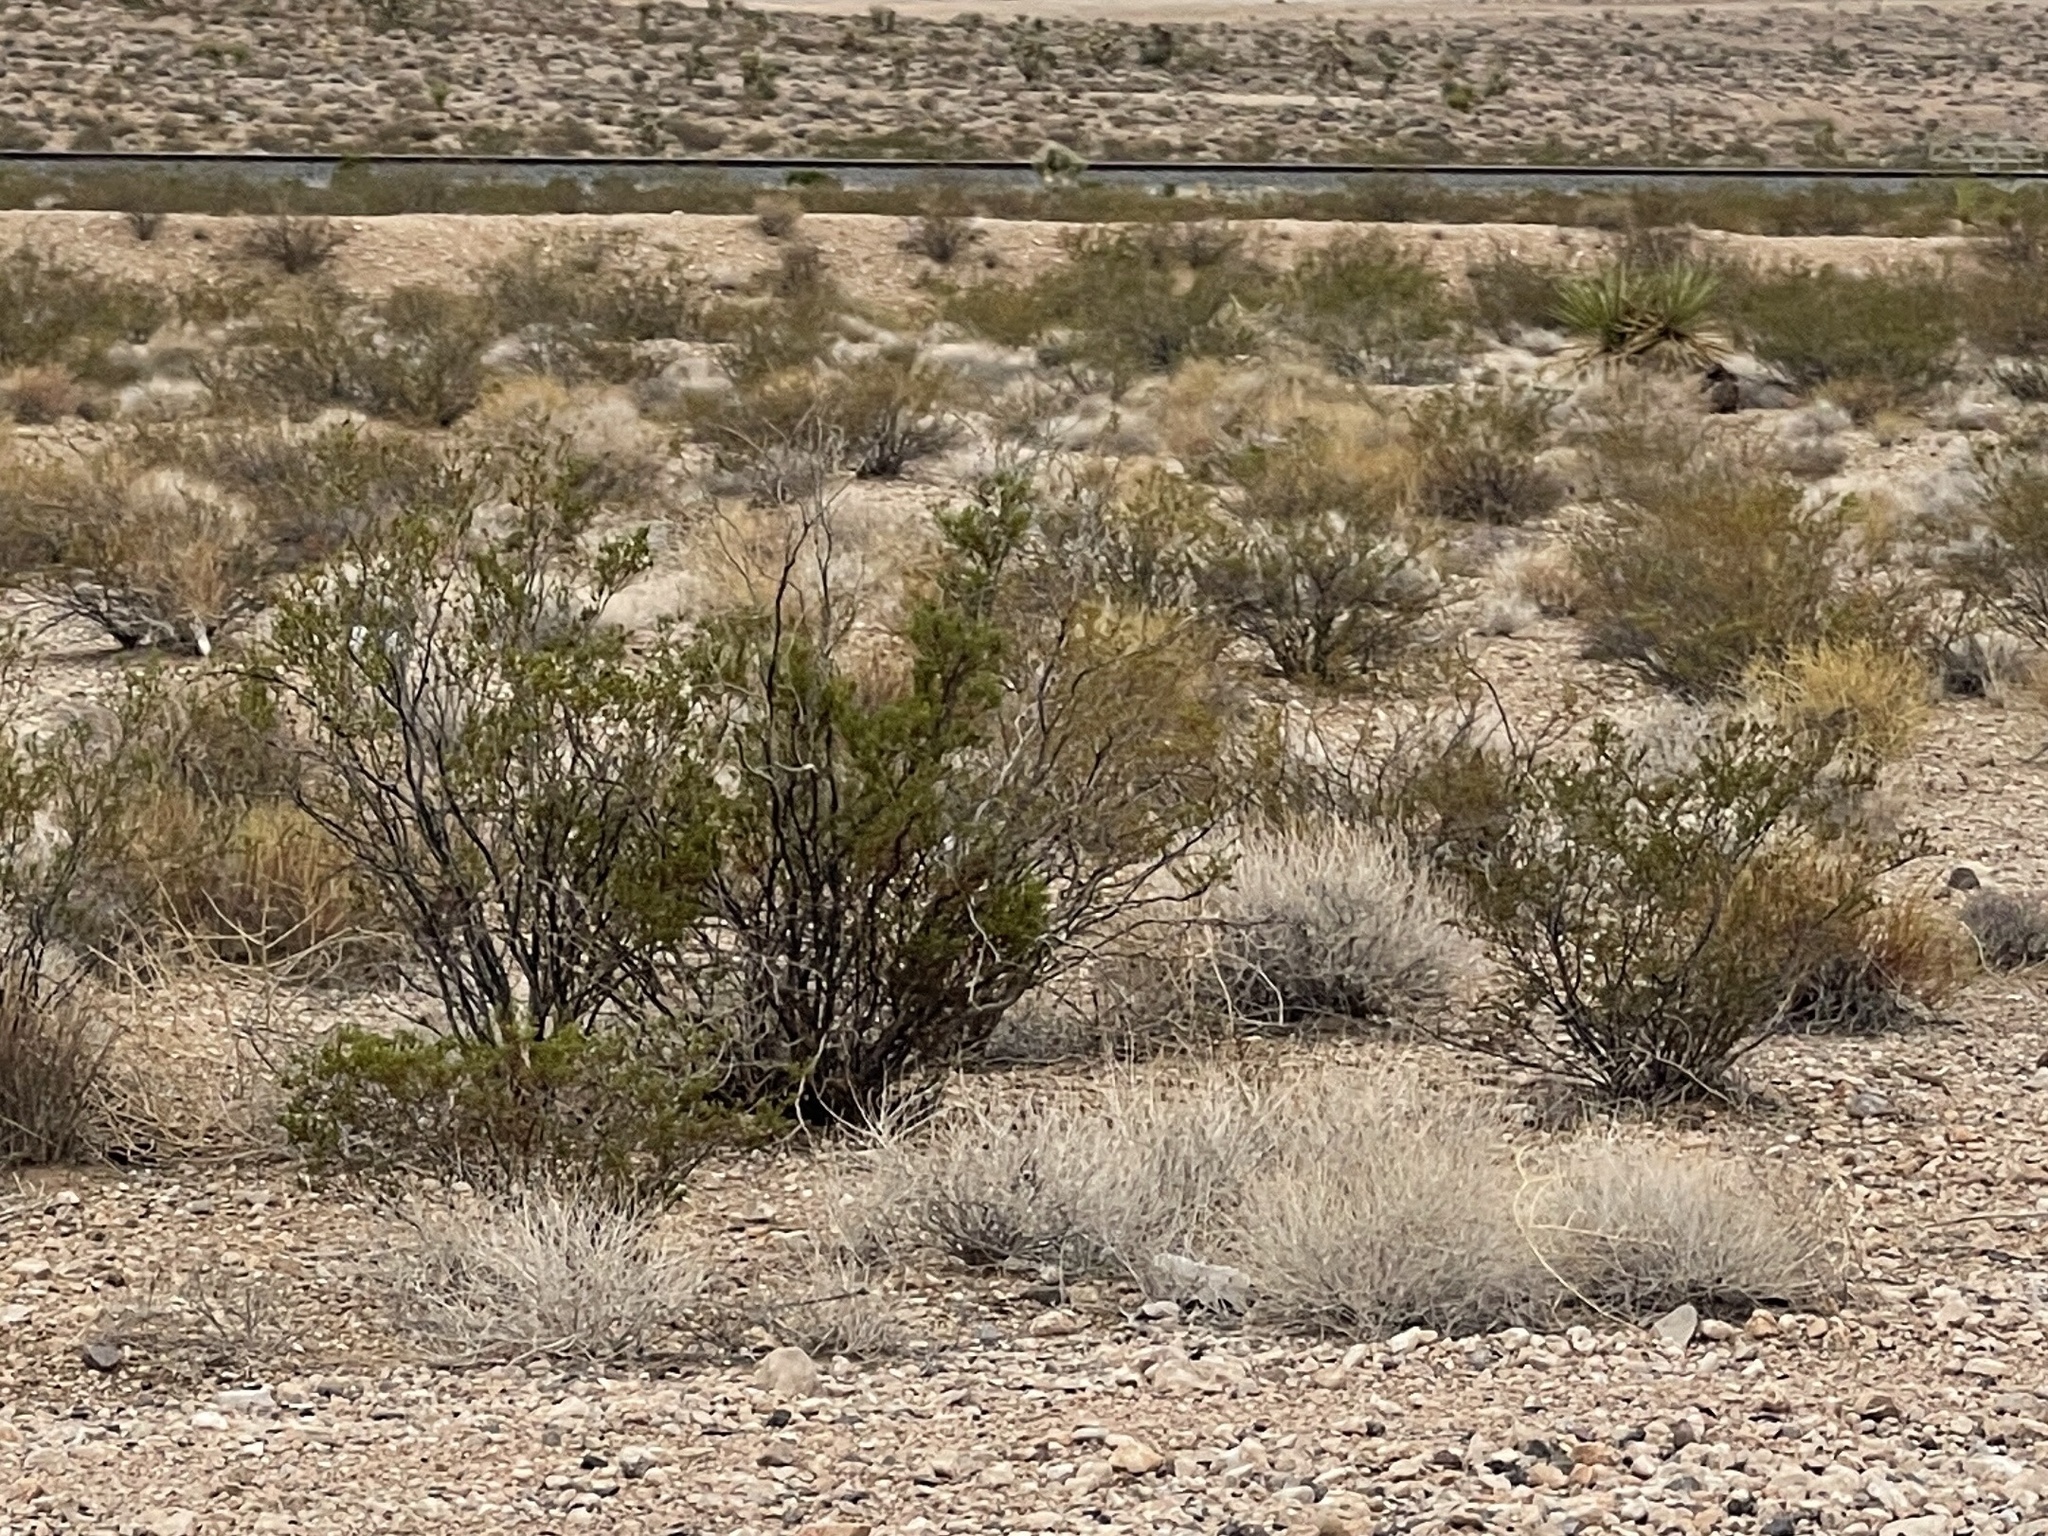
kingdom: Plantae
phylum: Tracheophyta
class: Magnoliopsida
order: Zygophyllales
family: Zygophyllaceae
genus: Larrea
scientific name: Larrea tridentata
